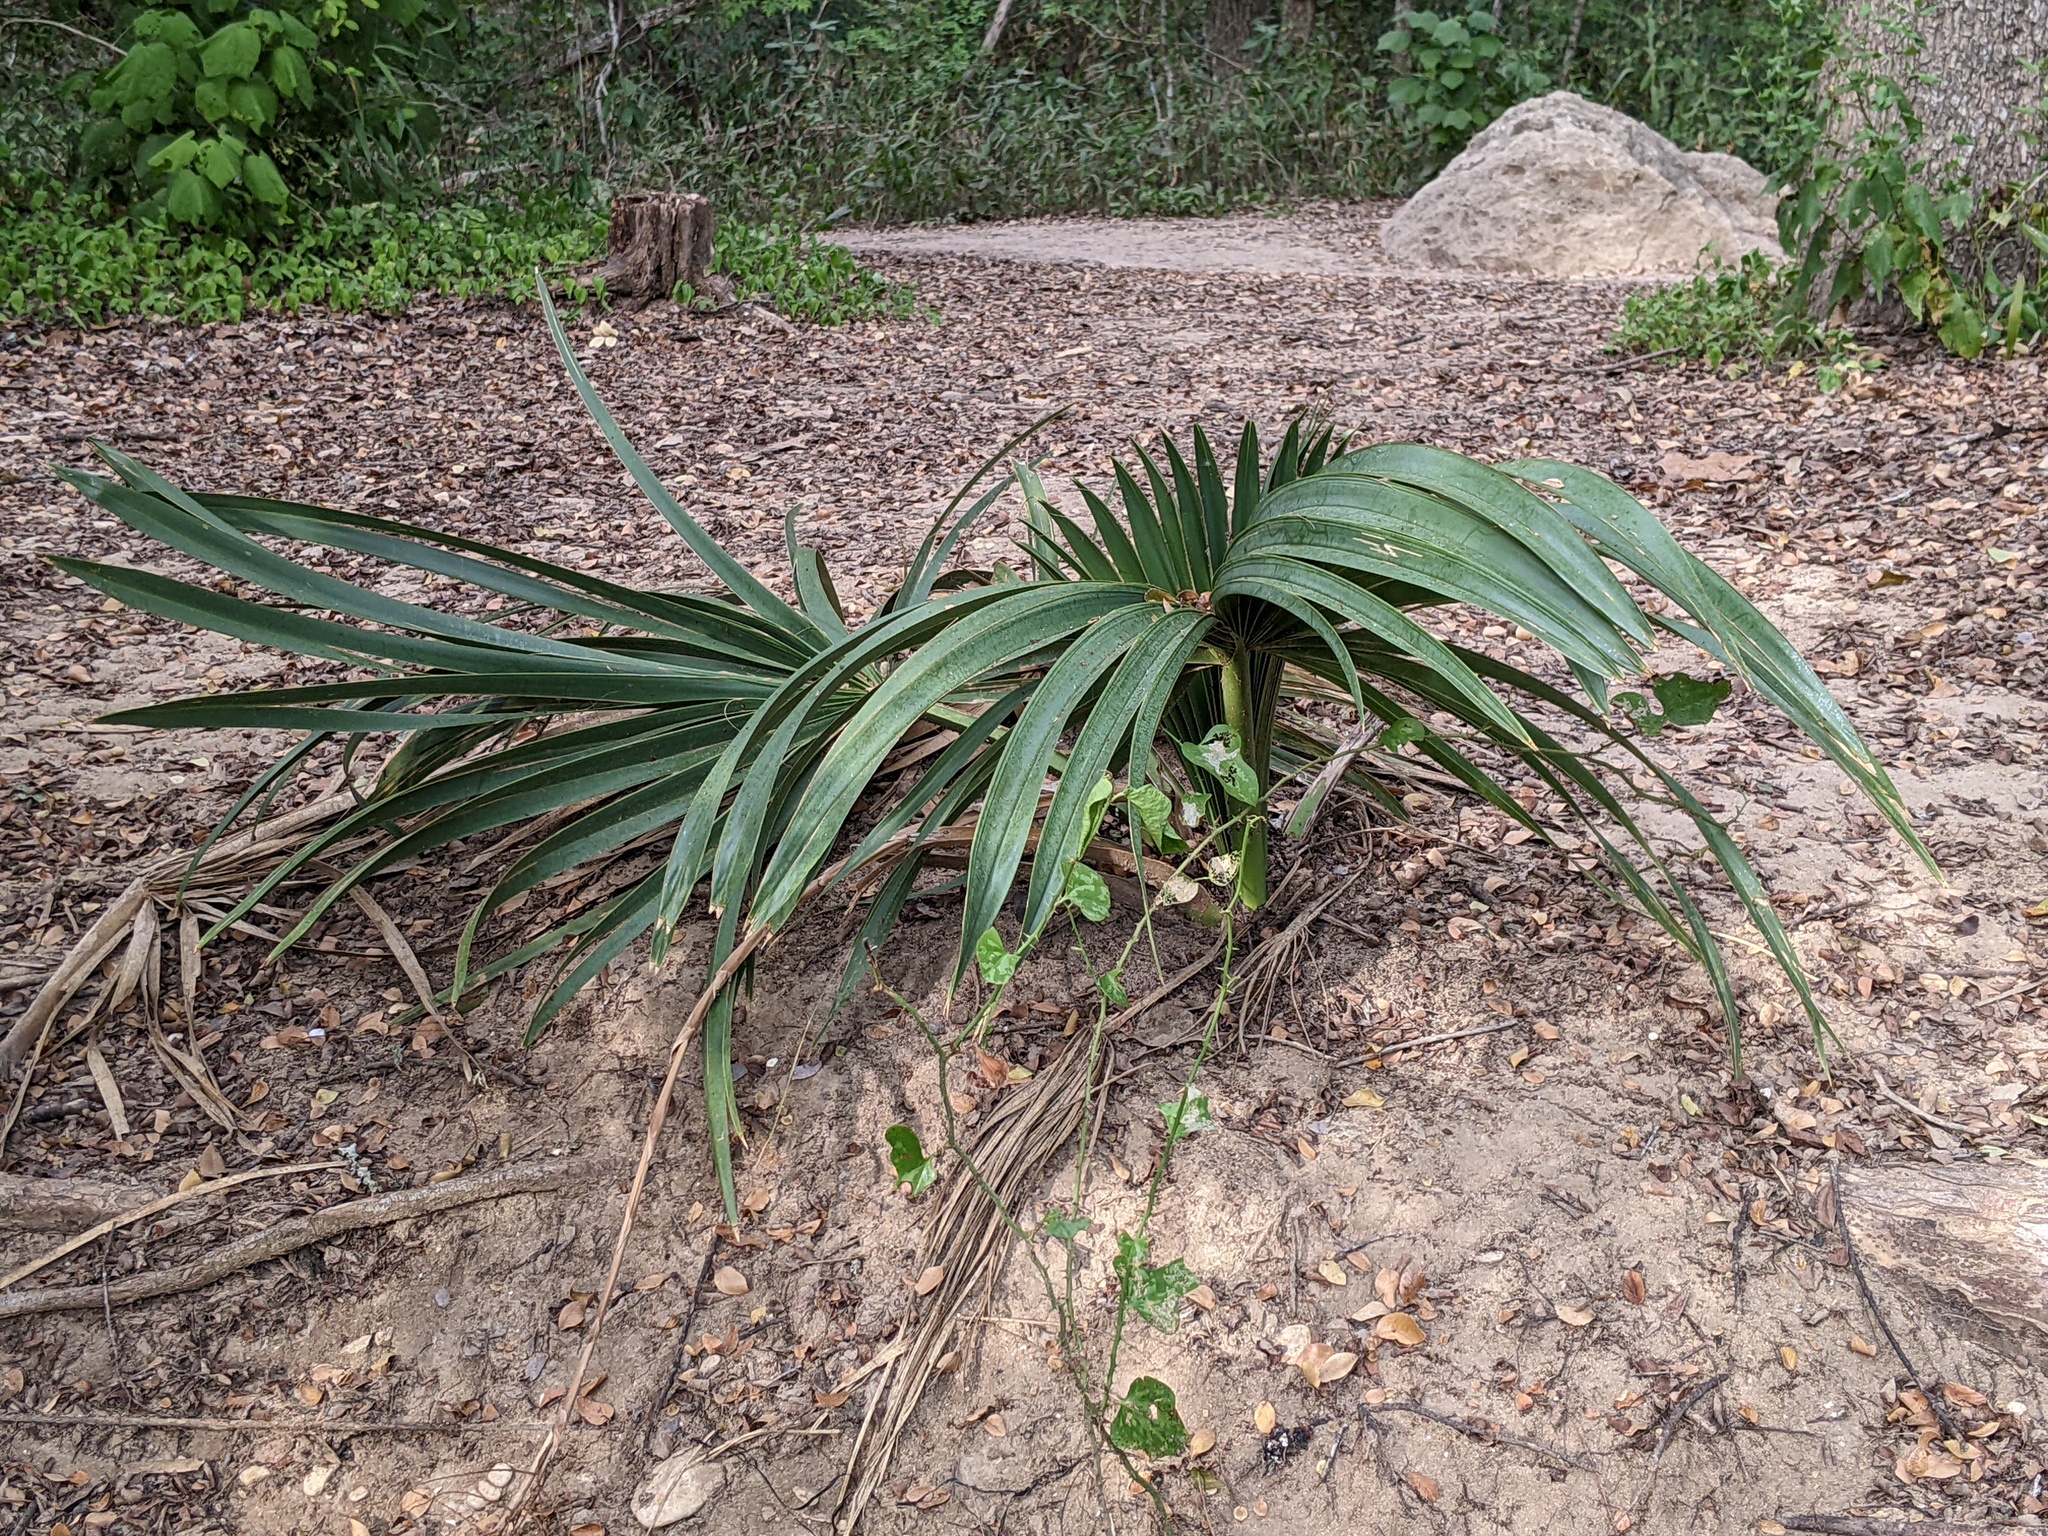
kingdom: Plantae
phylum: Tracheophyta
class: Liliopsida
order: Arecales
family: Arecaceae
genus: Sabal
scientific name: Sabal minor
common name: Dwarf palmetto
